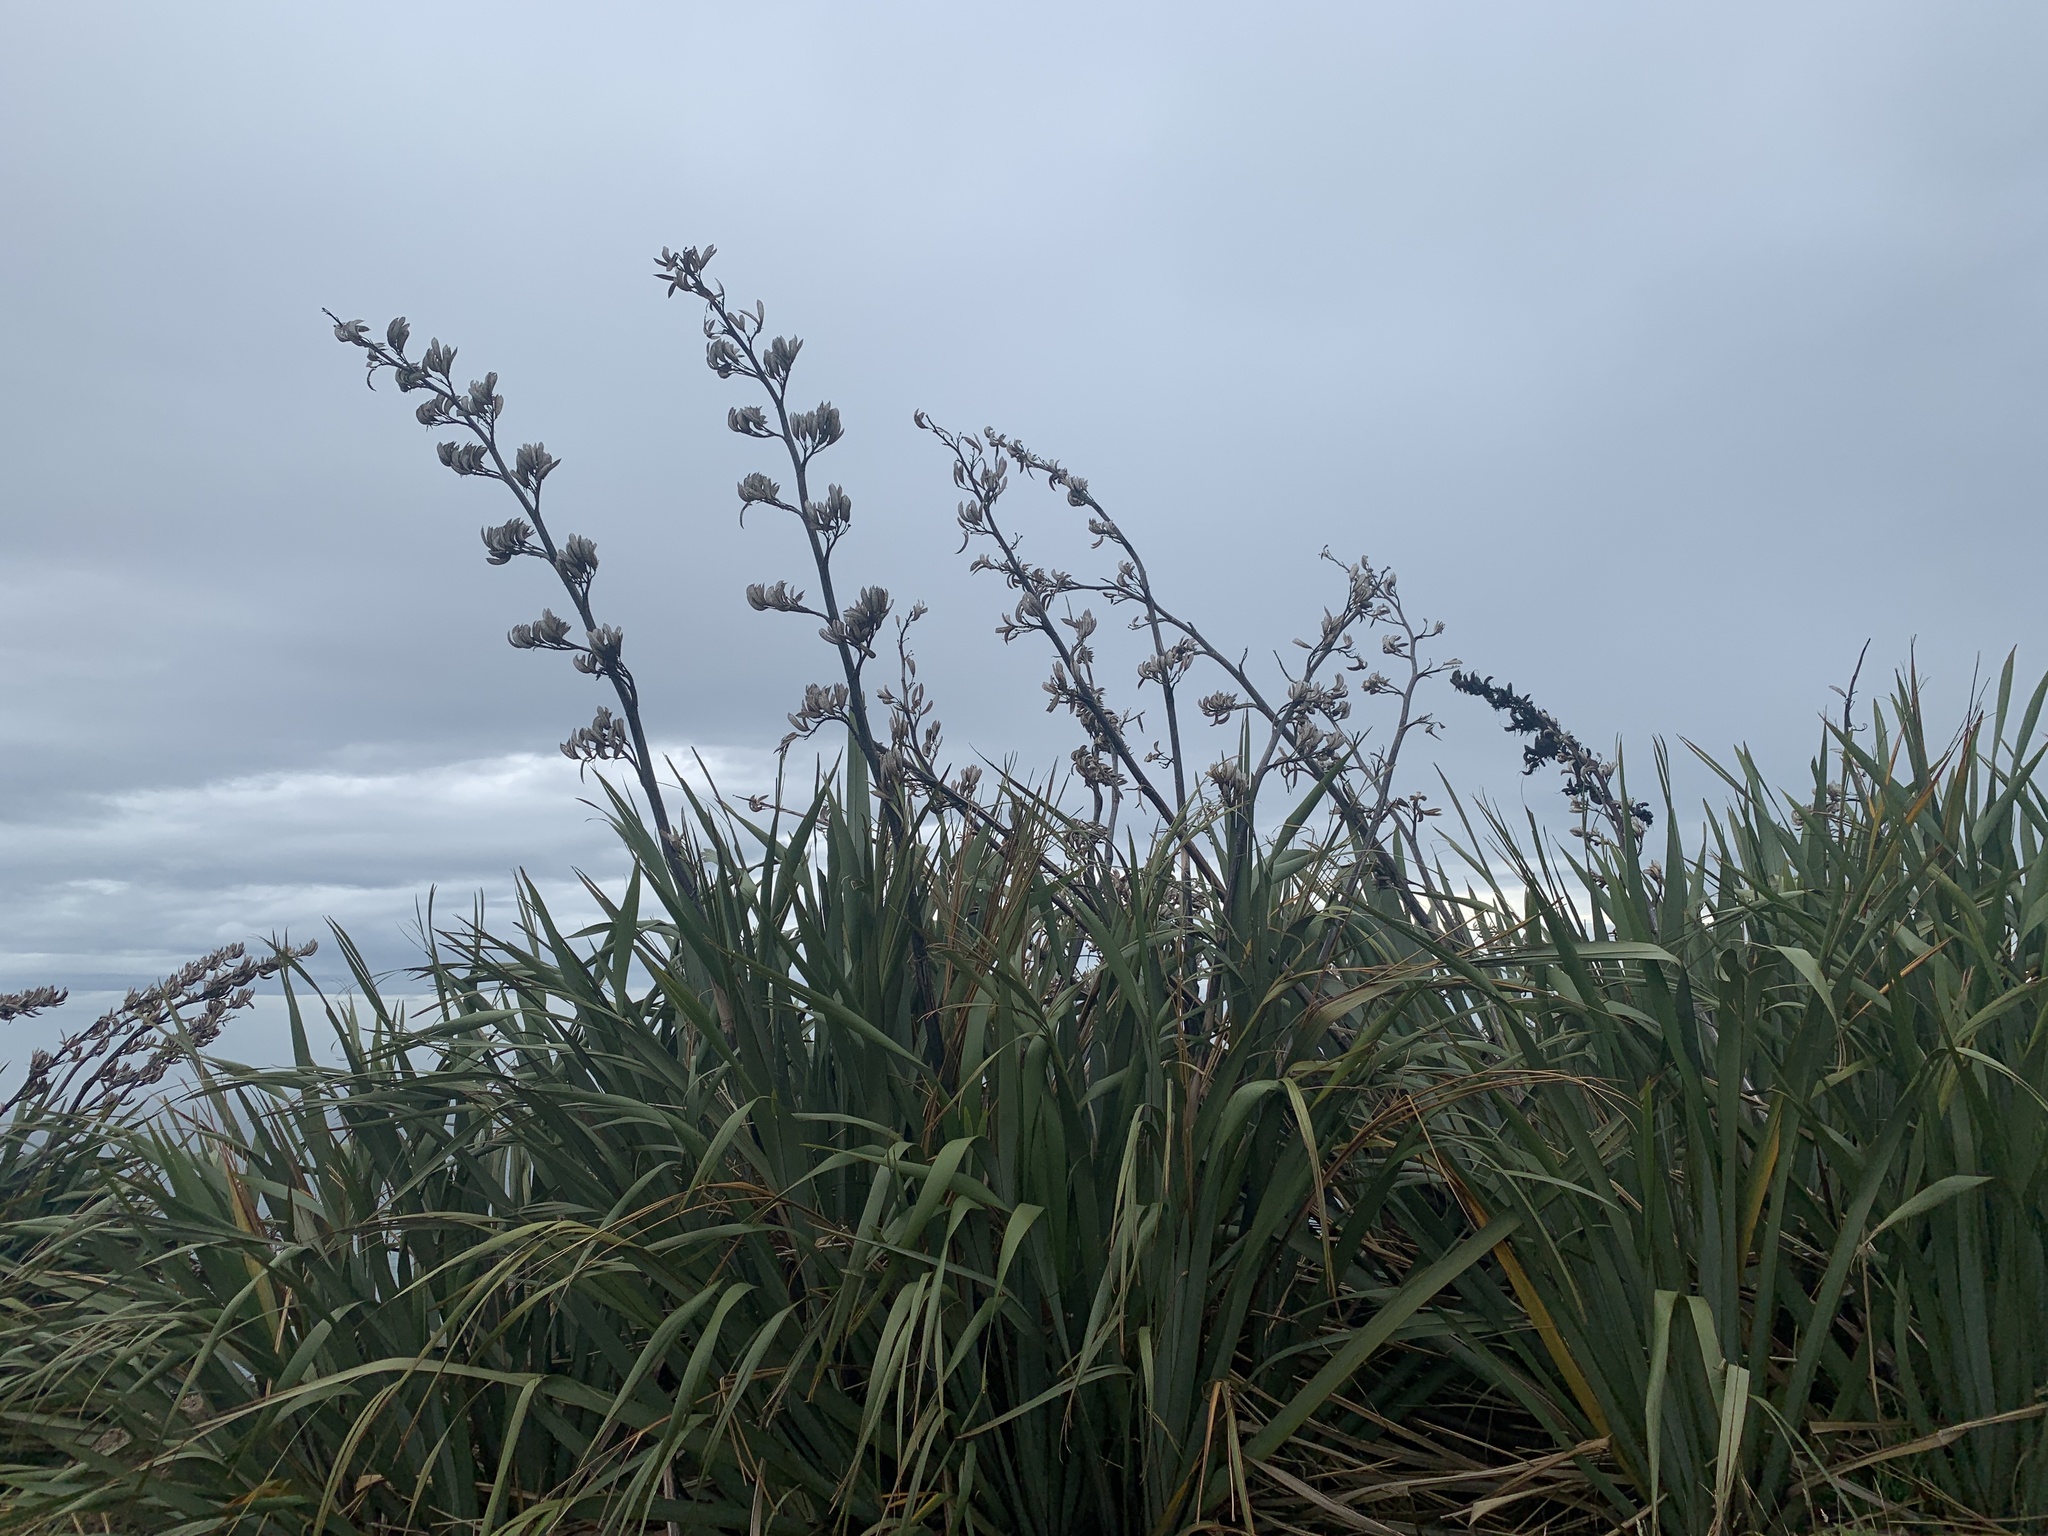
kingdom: Plantae
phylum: Tracheophyta
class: Liliopsida
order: Asparagales
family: Asphodelaceae
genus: Phormium
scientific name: Phormium tenax
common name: New zealand flax
